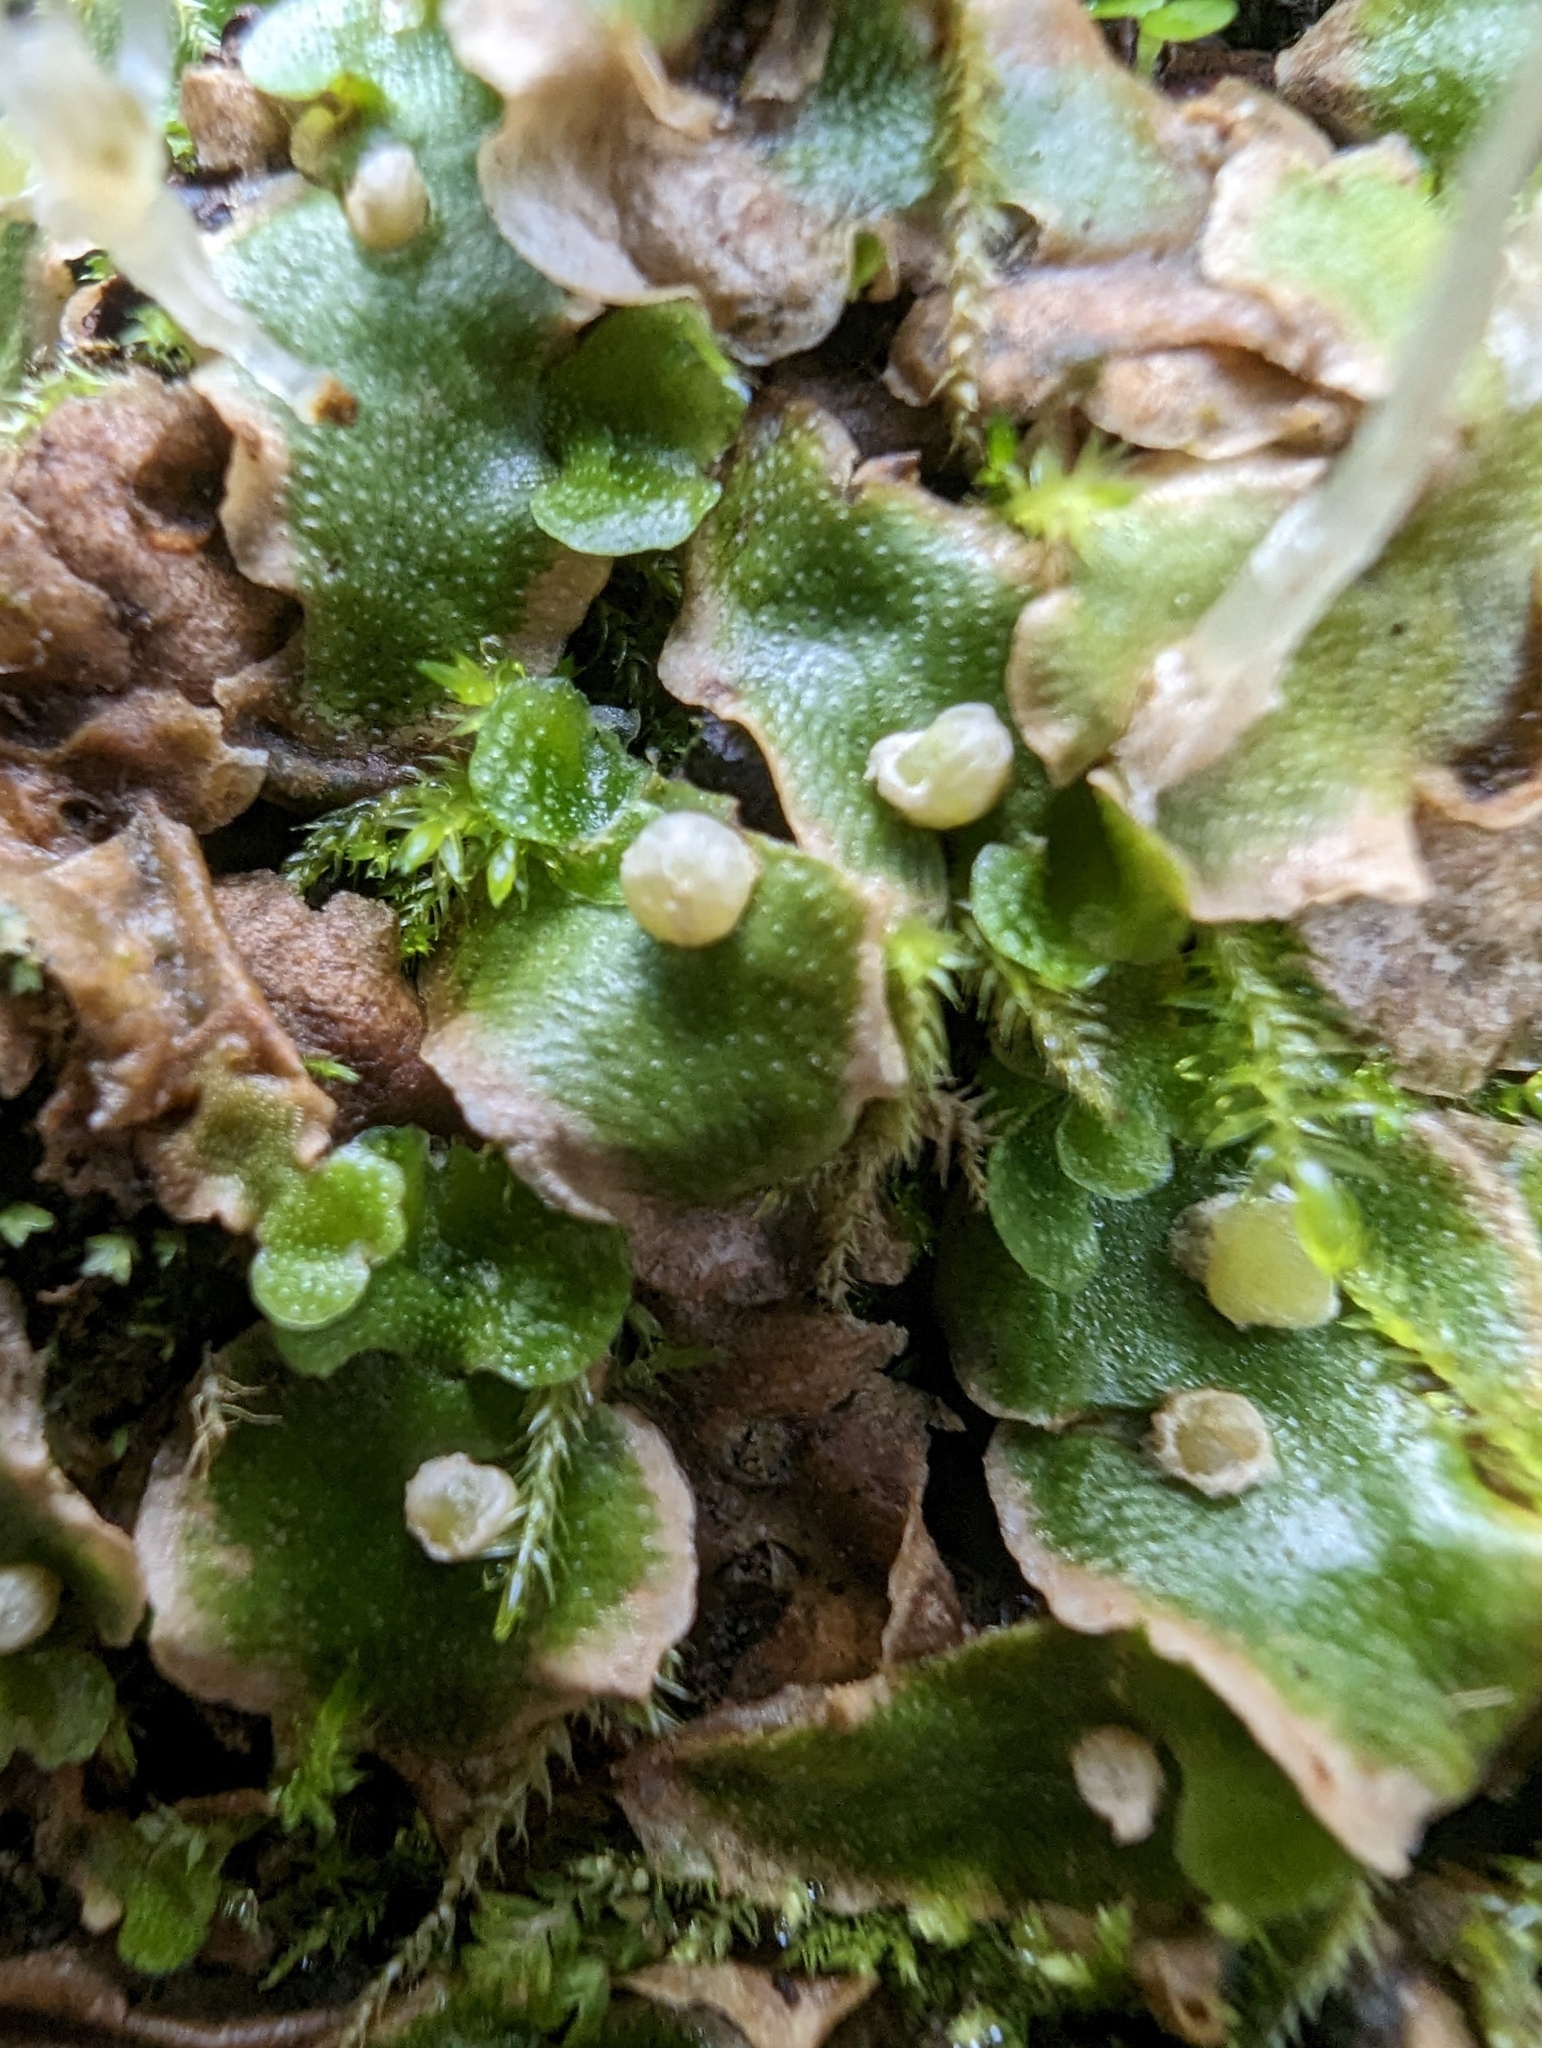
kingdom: Plantae
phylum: Marchantiophyta
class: Marchantiopsida
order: Lunulariales
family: Lunulariaceae
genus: Lunularia
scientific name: Lunularia cruciata
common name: Crescent-cup liverwort
